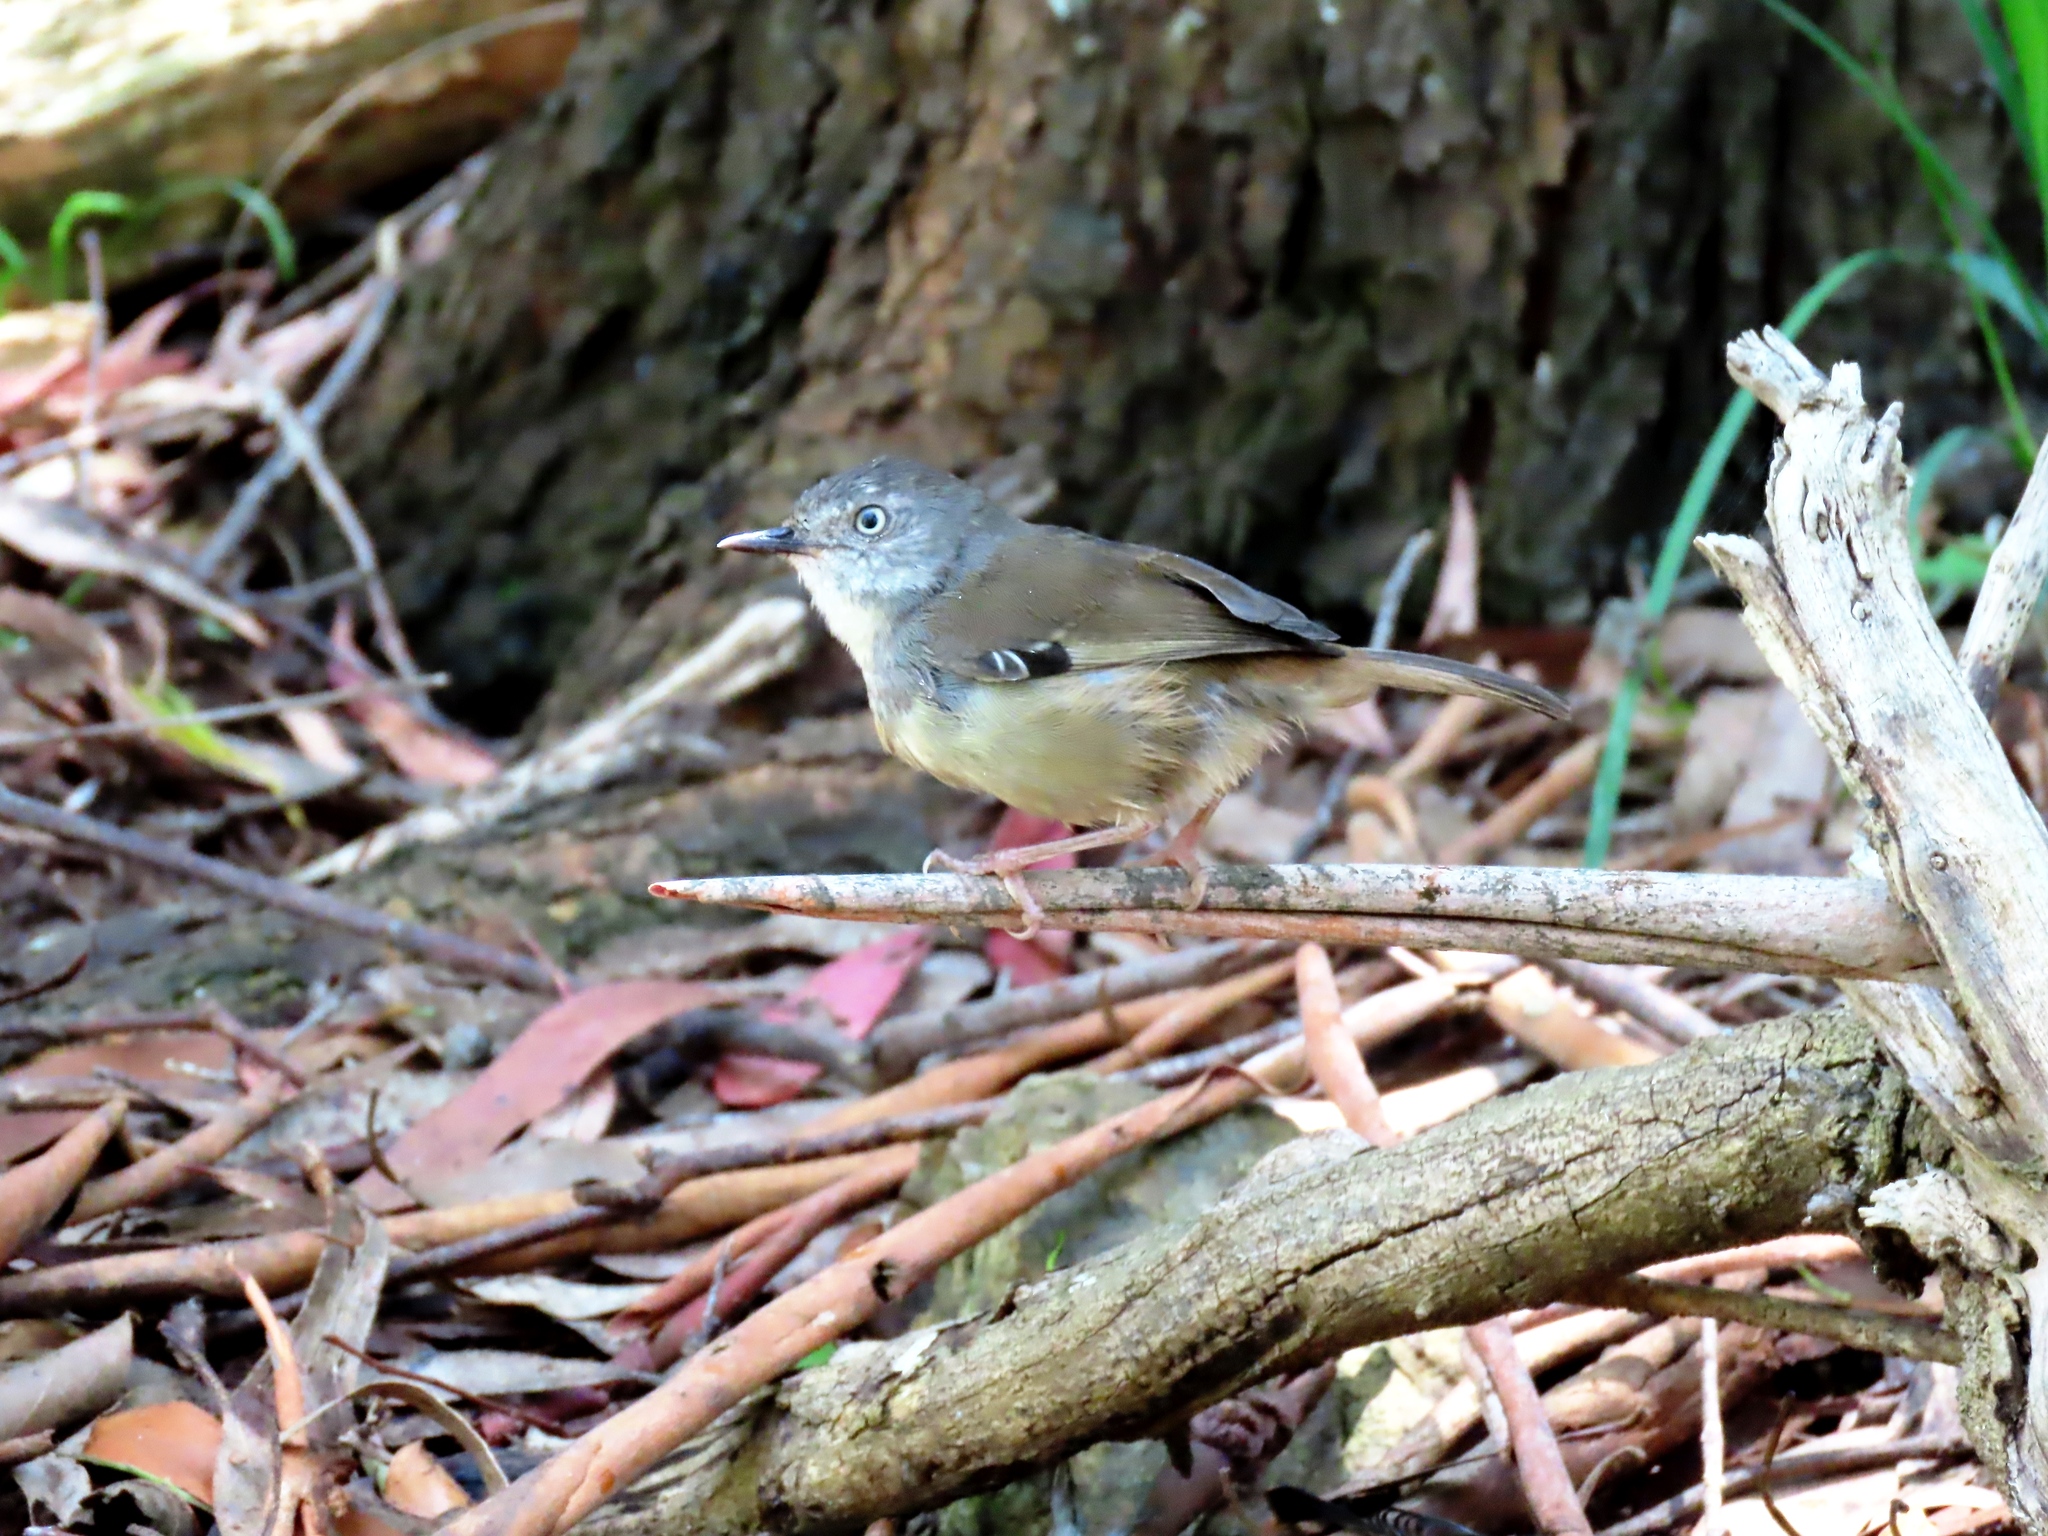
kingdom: Animalia
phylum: Chordata
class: Aves
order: Passeriformes
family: Acanthizidae
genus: Sericornis
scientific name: Sericornis frontalis
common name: White-browed scrubwren
